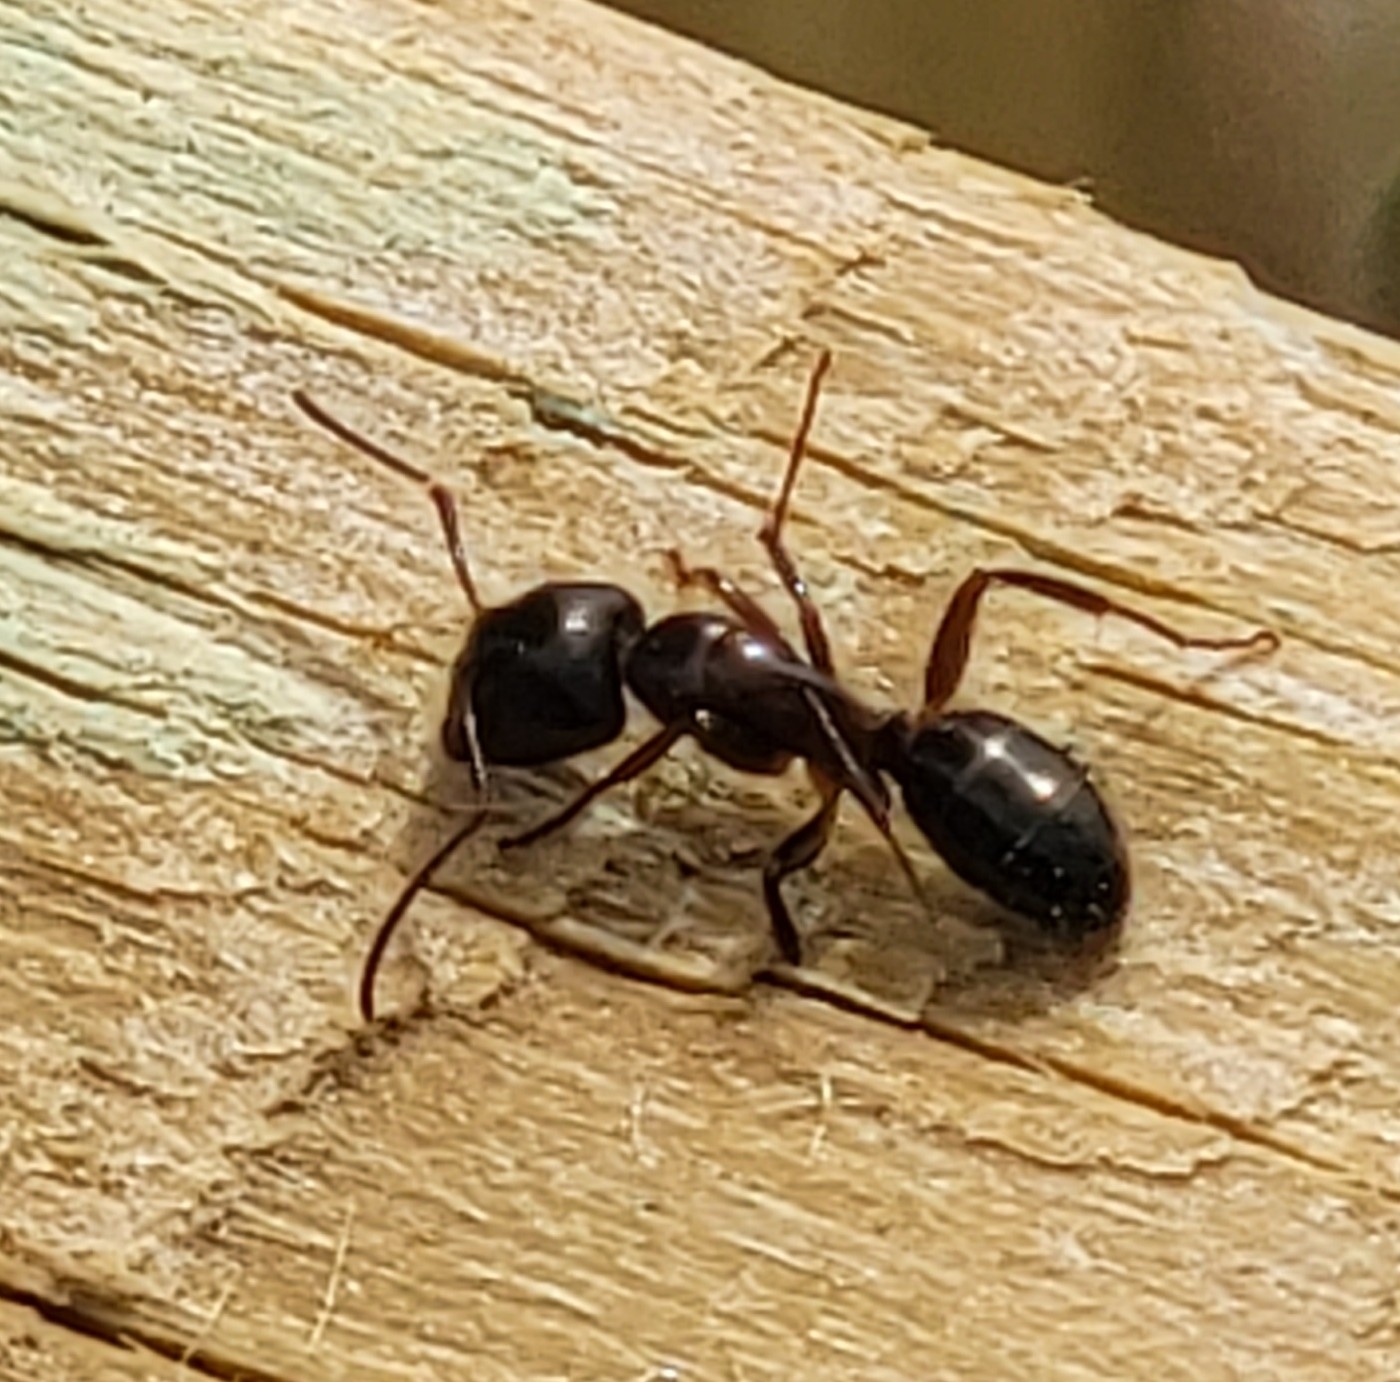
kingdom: Animalia
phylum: Arthropoda
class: Insecta
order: Hymenoptera
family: Formicidae
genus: Myrmentoma
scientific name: Myrmentoma
